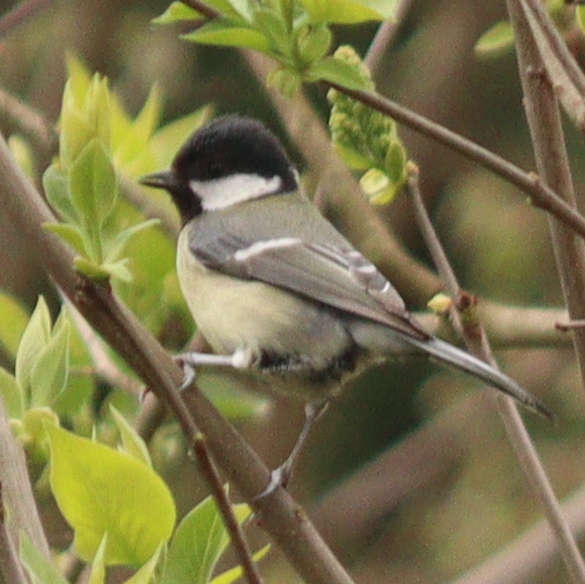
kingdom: Animalia
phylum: Chordata
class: Aves
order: Passeriformes
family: Paridae
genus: Parus
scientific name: Parus major
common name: Great tit
